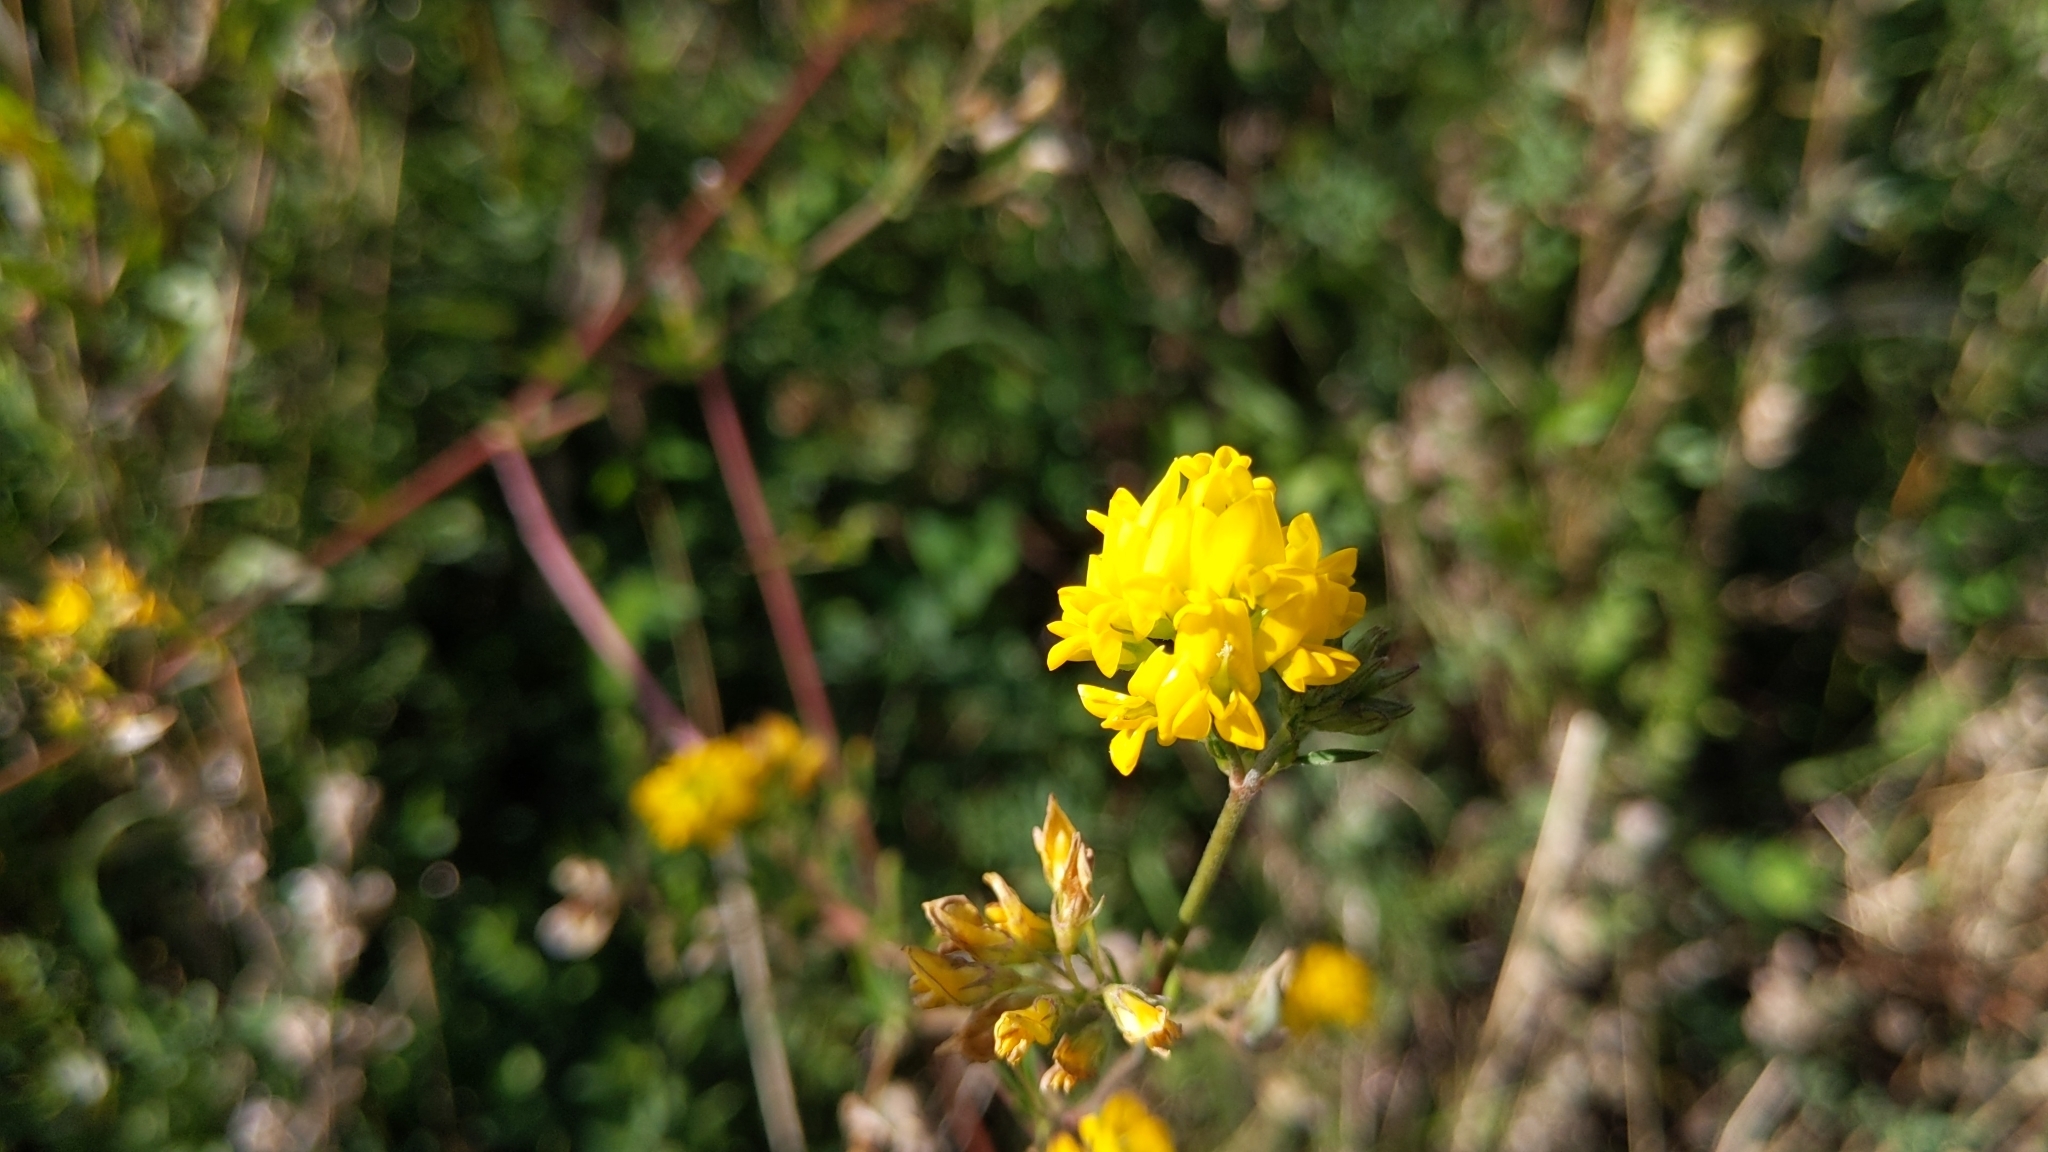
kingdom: Plantae
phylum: Tracheophyta
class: Magnoliopsida
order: Fabales
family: Fabaceae
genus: Medicago
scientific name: Medicago falcata
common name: Sickle medick
